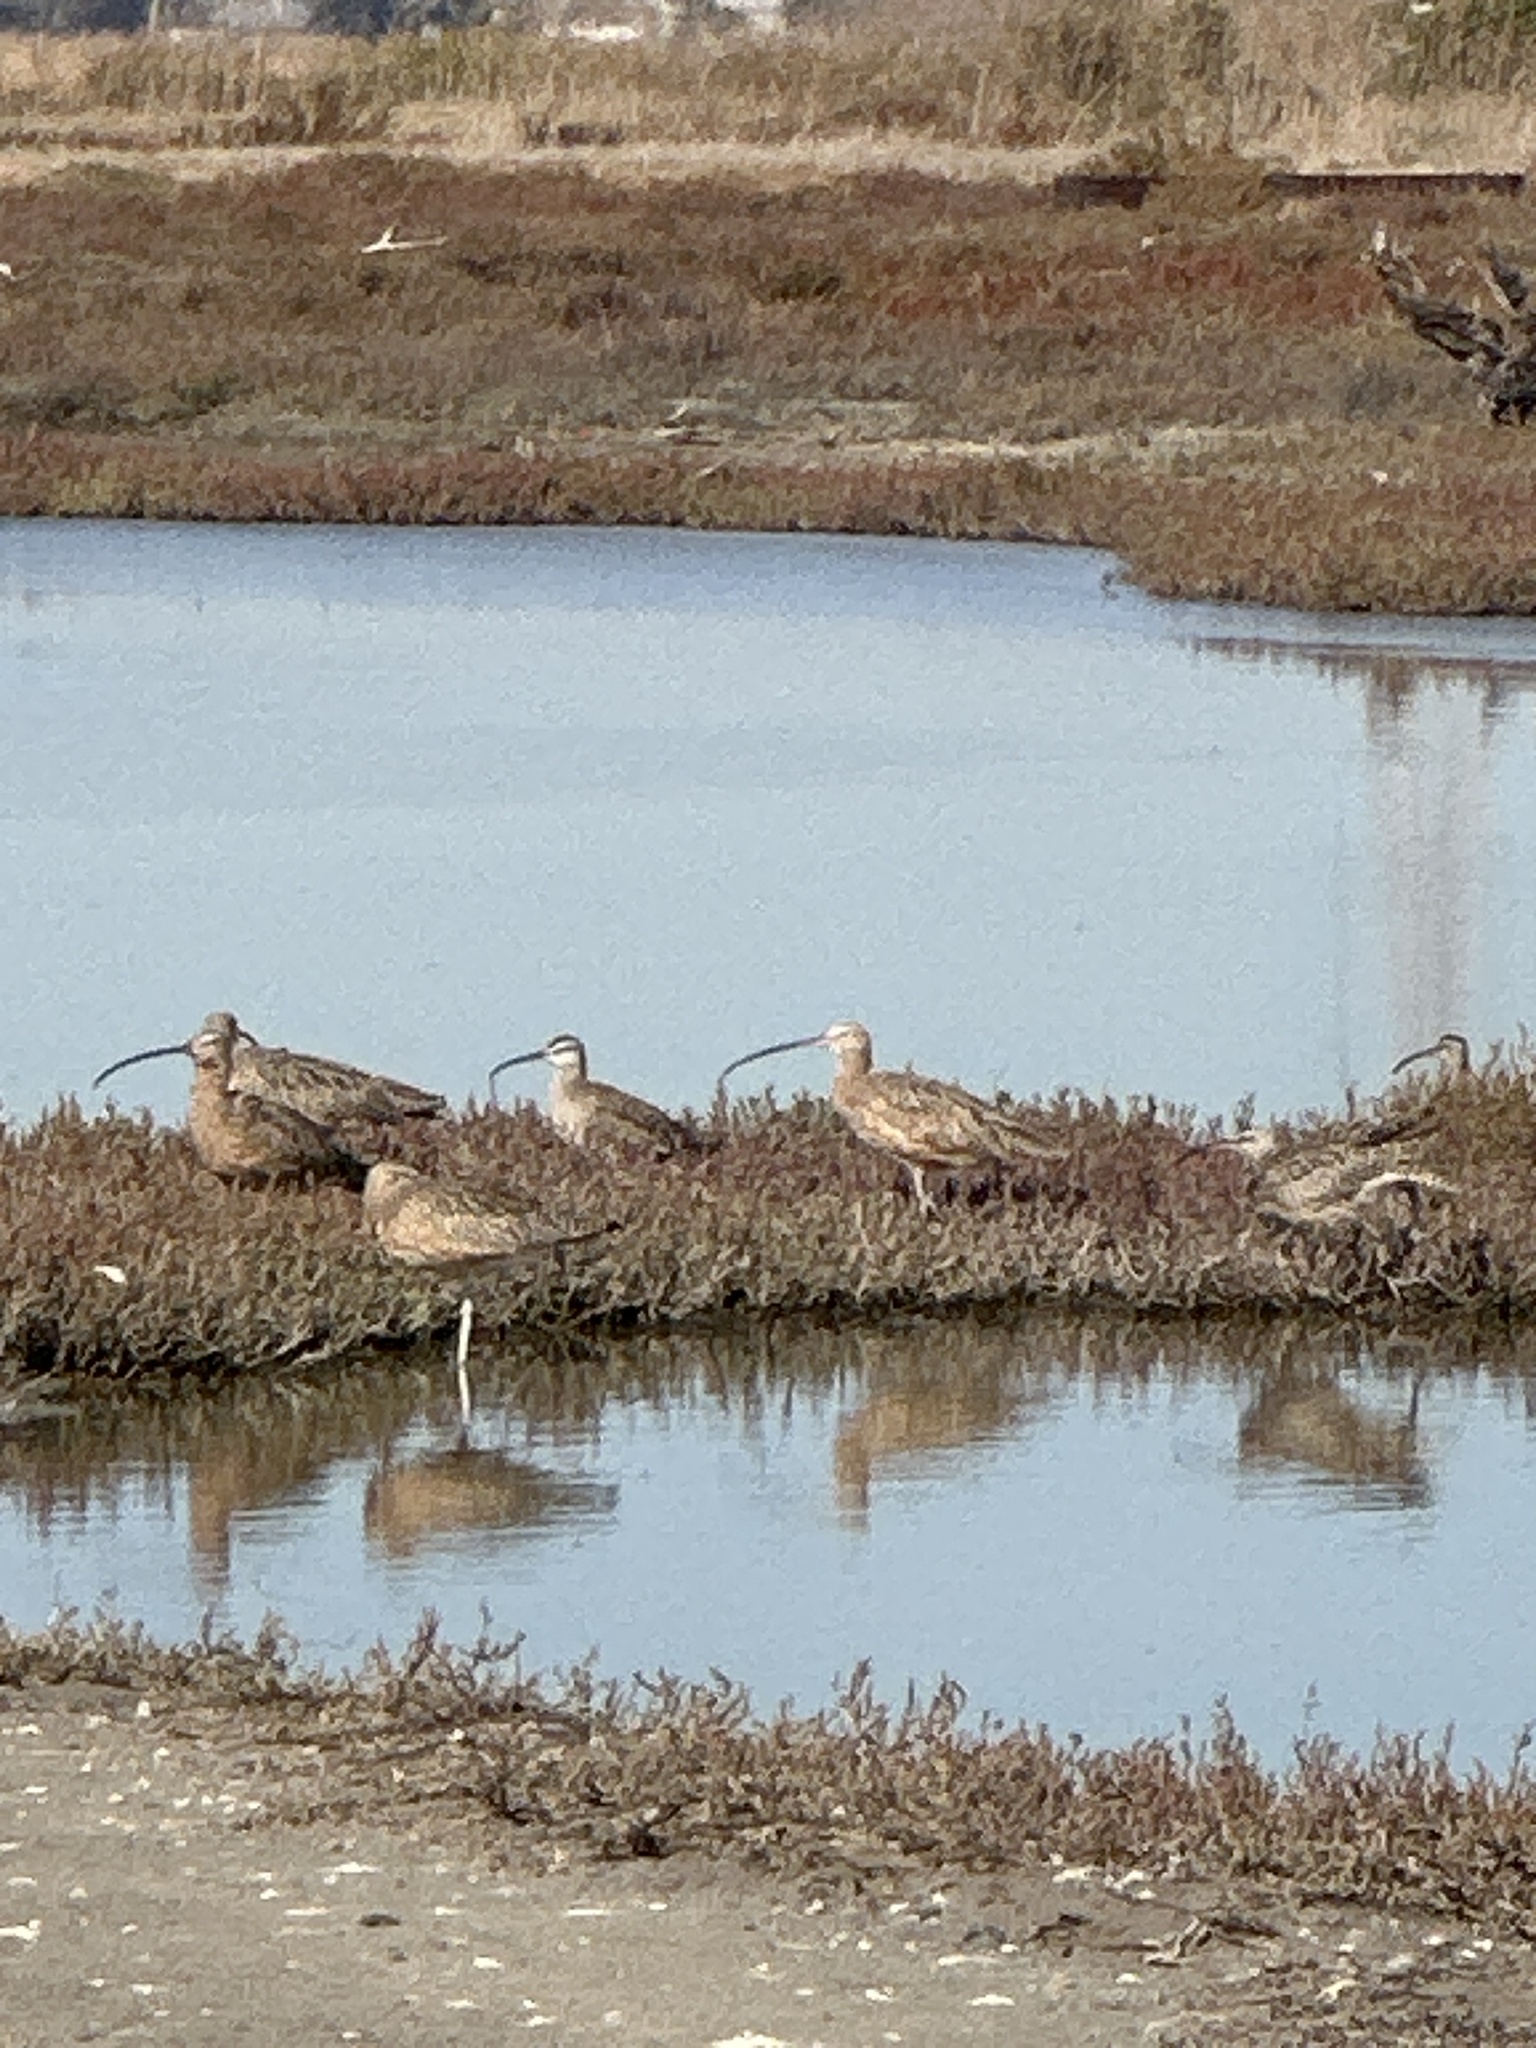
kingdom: Animalia
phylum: Chordata
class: Aves
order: Charadriiformes
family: Scolopacidae
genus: Numenius
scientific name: Numenius americanus
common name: Long-billed curlew
